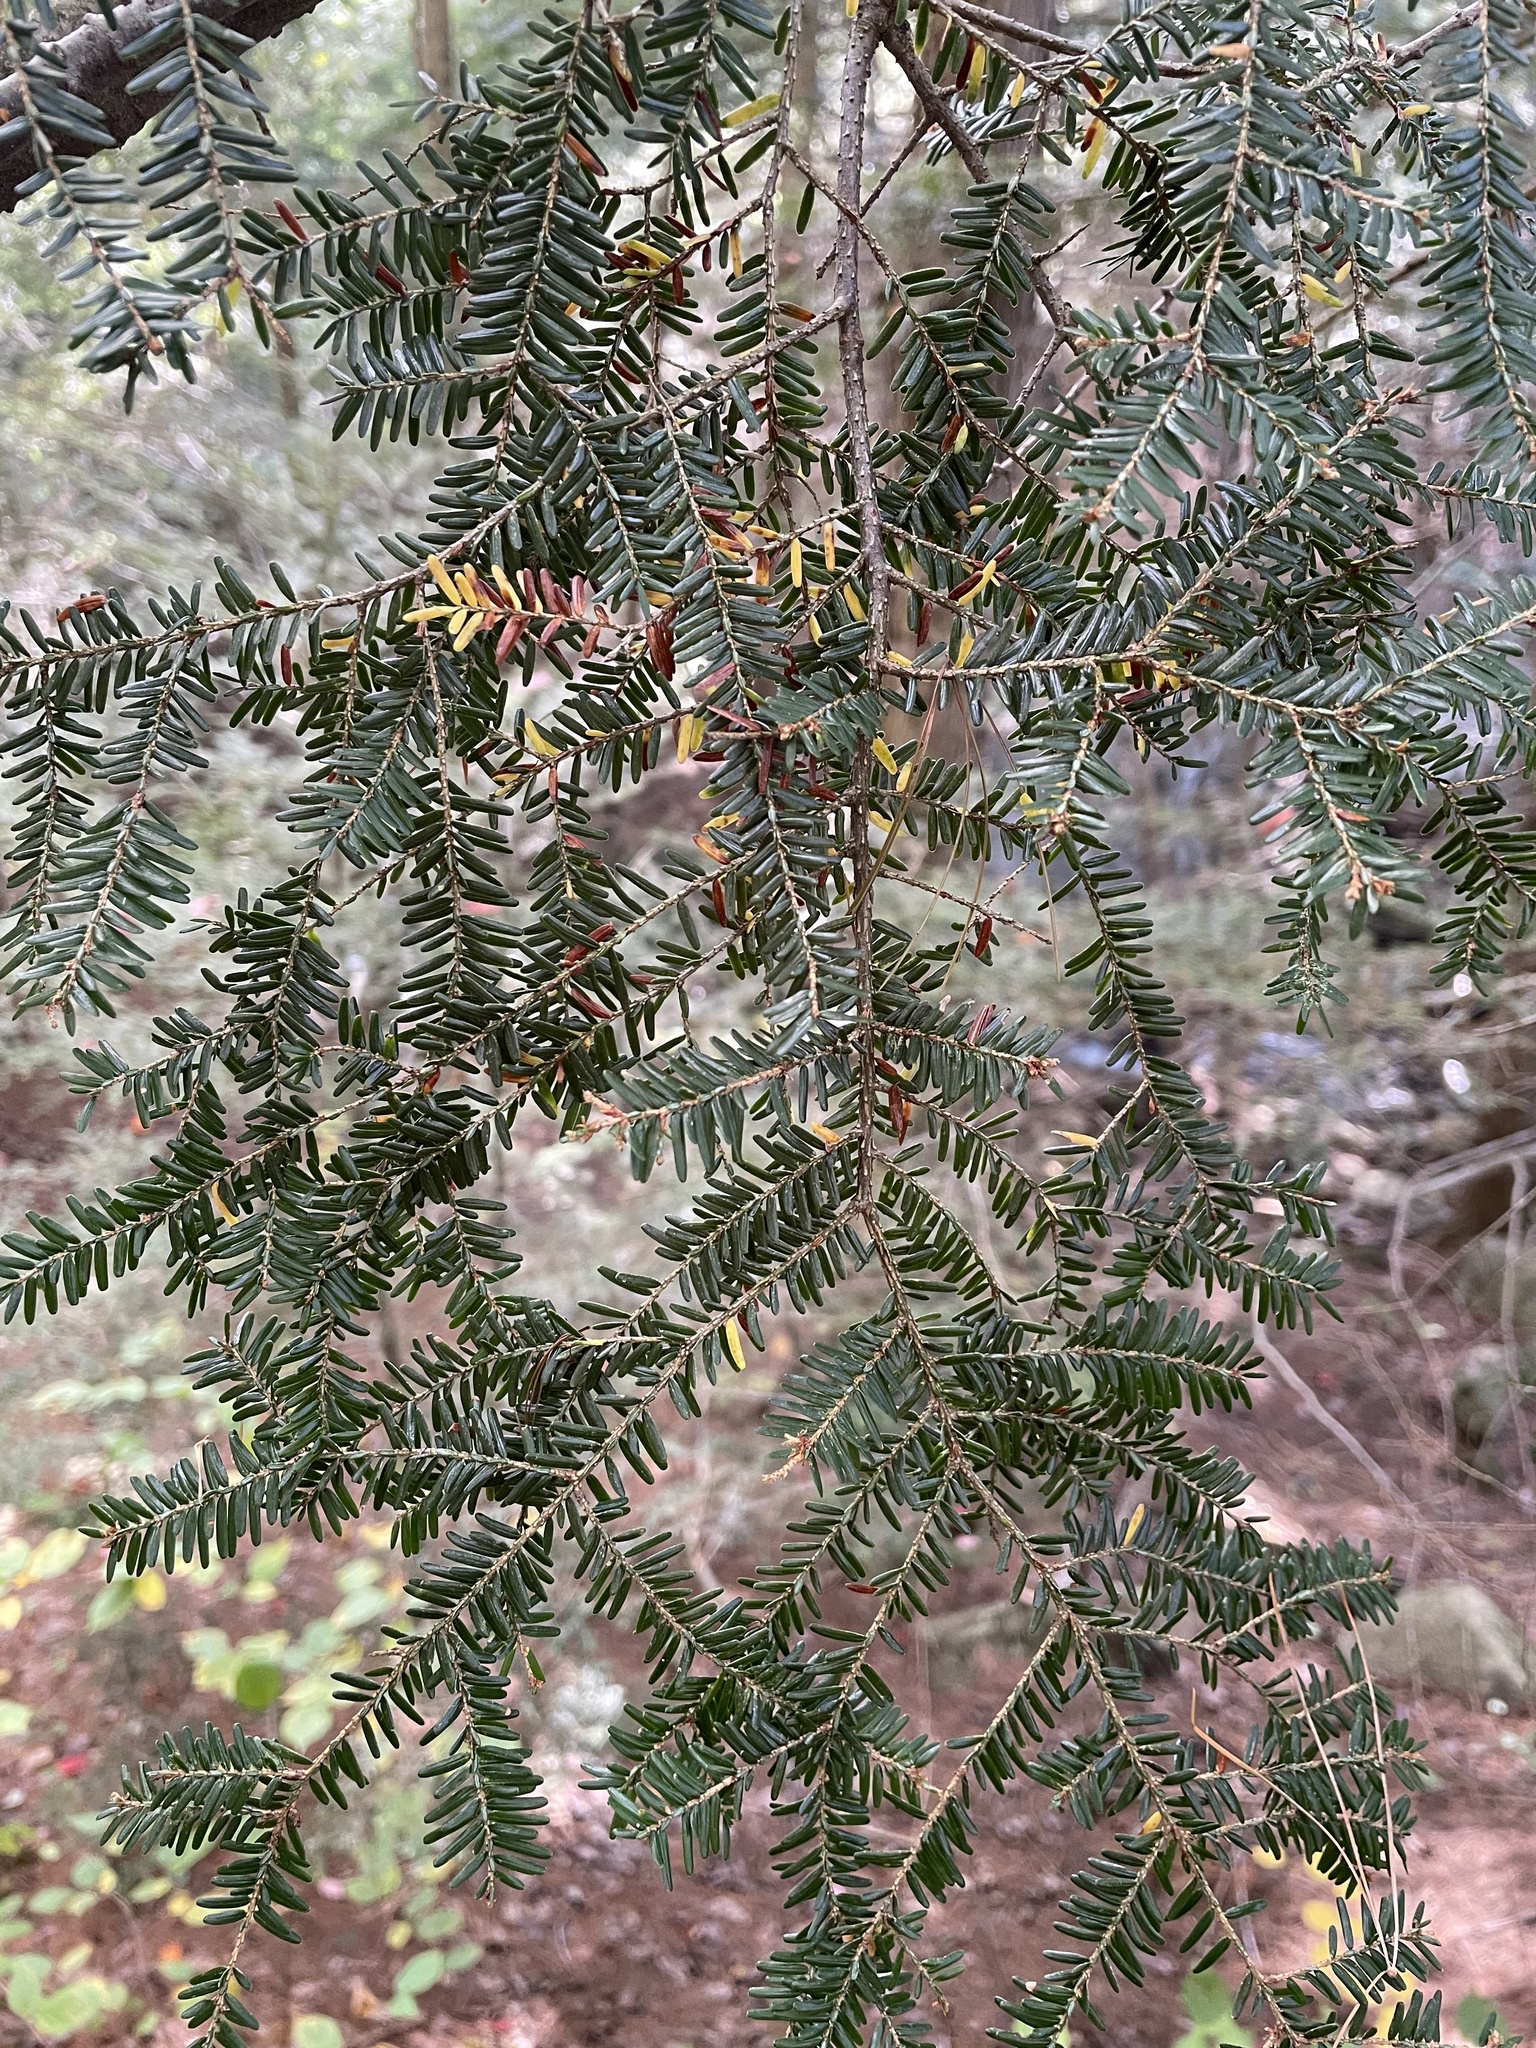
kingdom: Plantae
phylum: Tracheophyta
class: Pinopsida
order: Pinales
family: Pinaceae
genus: Tsuga
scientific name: Tsuga canadensis
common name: Eastern hemlock
